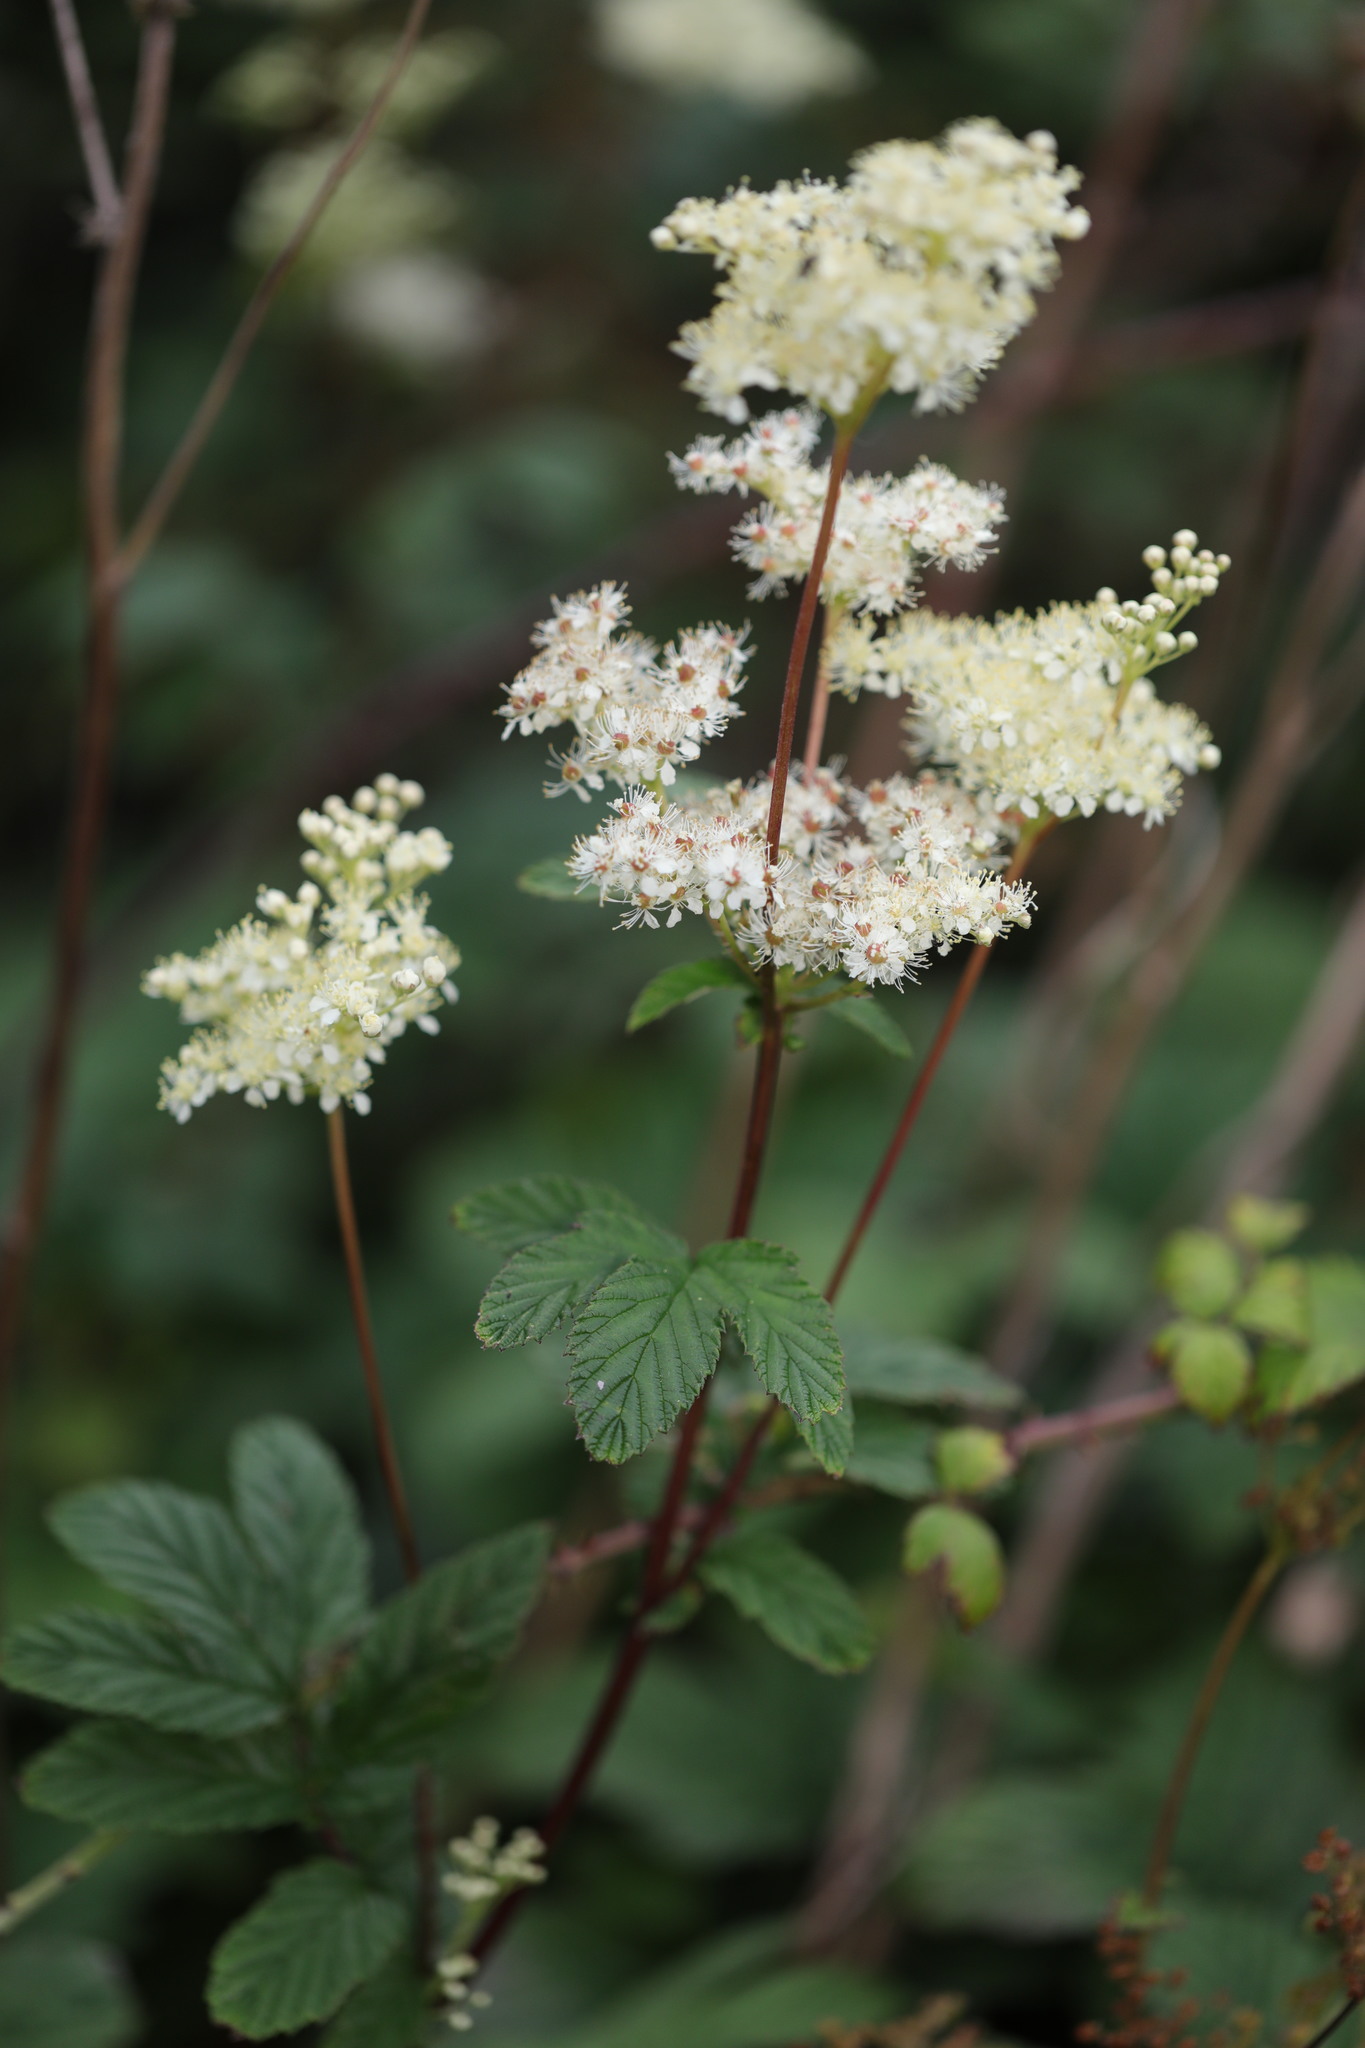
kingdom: Plantae
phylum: Tracheophyta
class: Magnoliopsida
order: Rosales
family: Rosaceae
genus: Filipendula
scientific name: Filipendula ulmaria
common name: Meadowsweet
